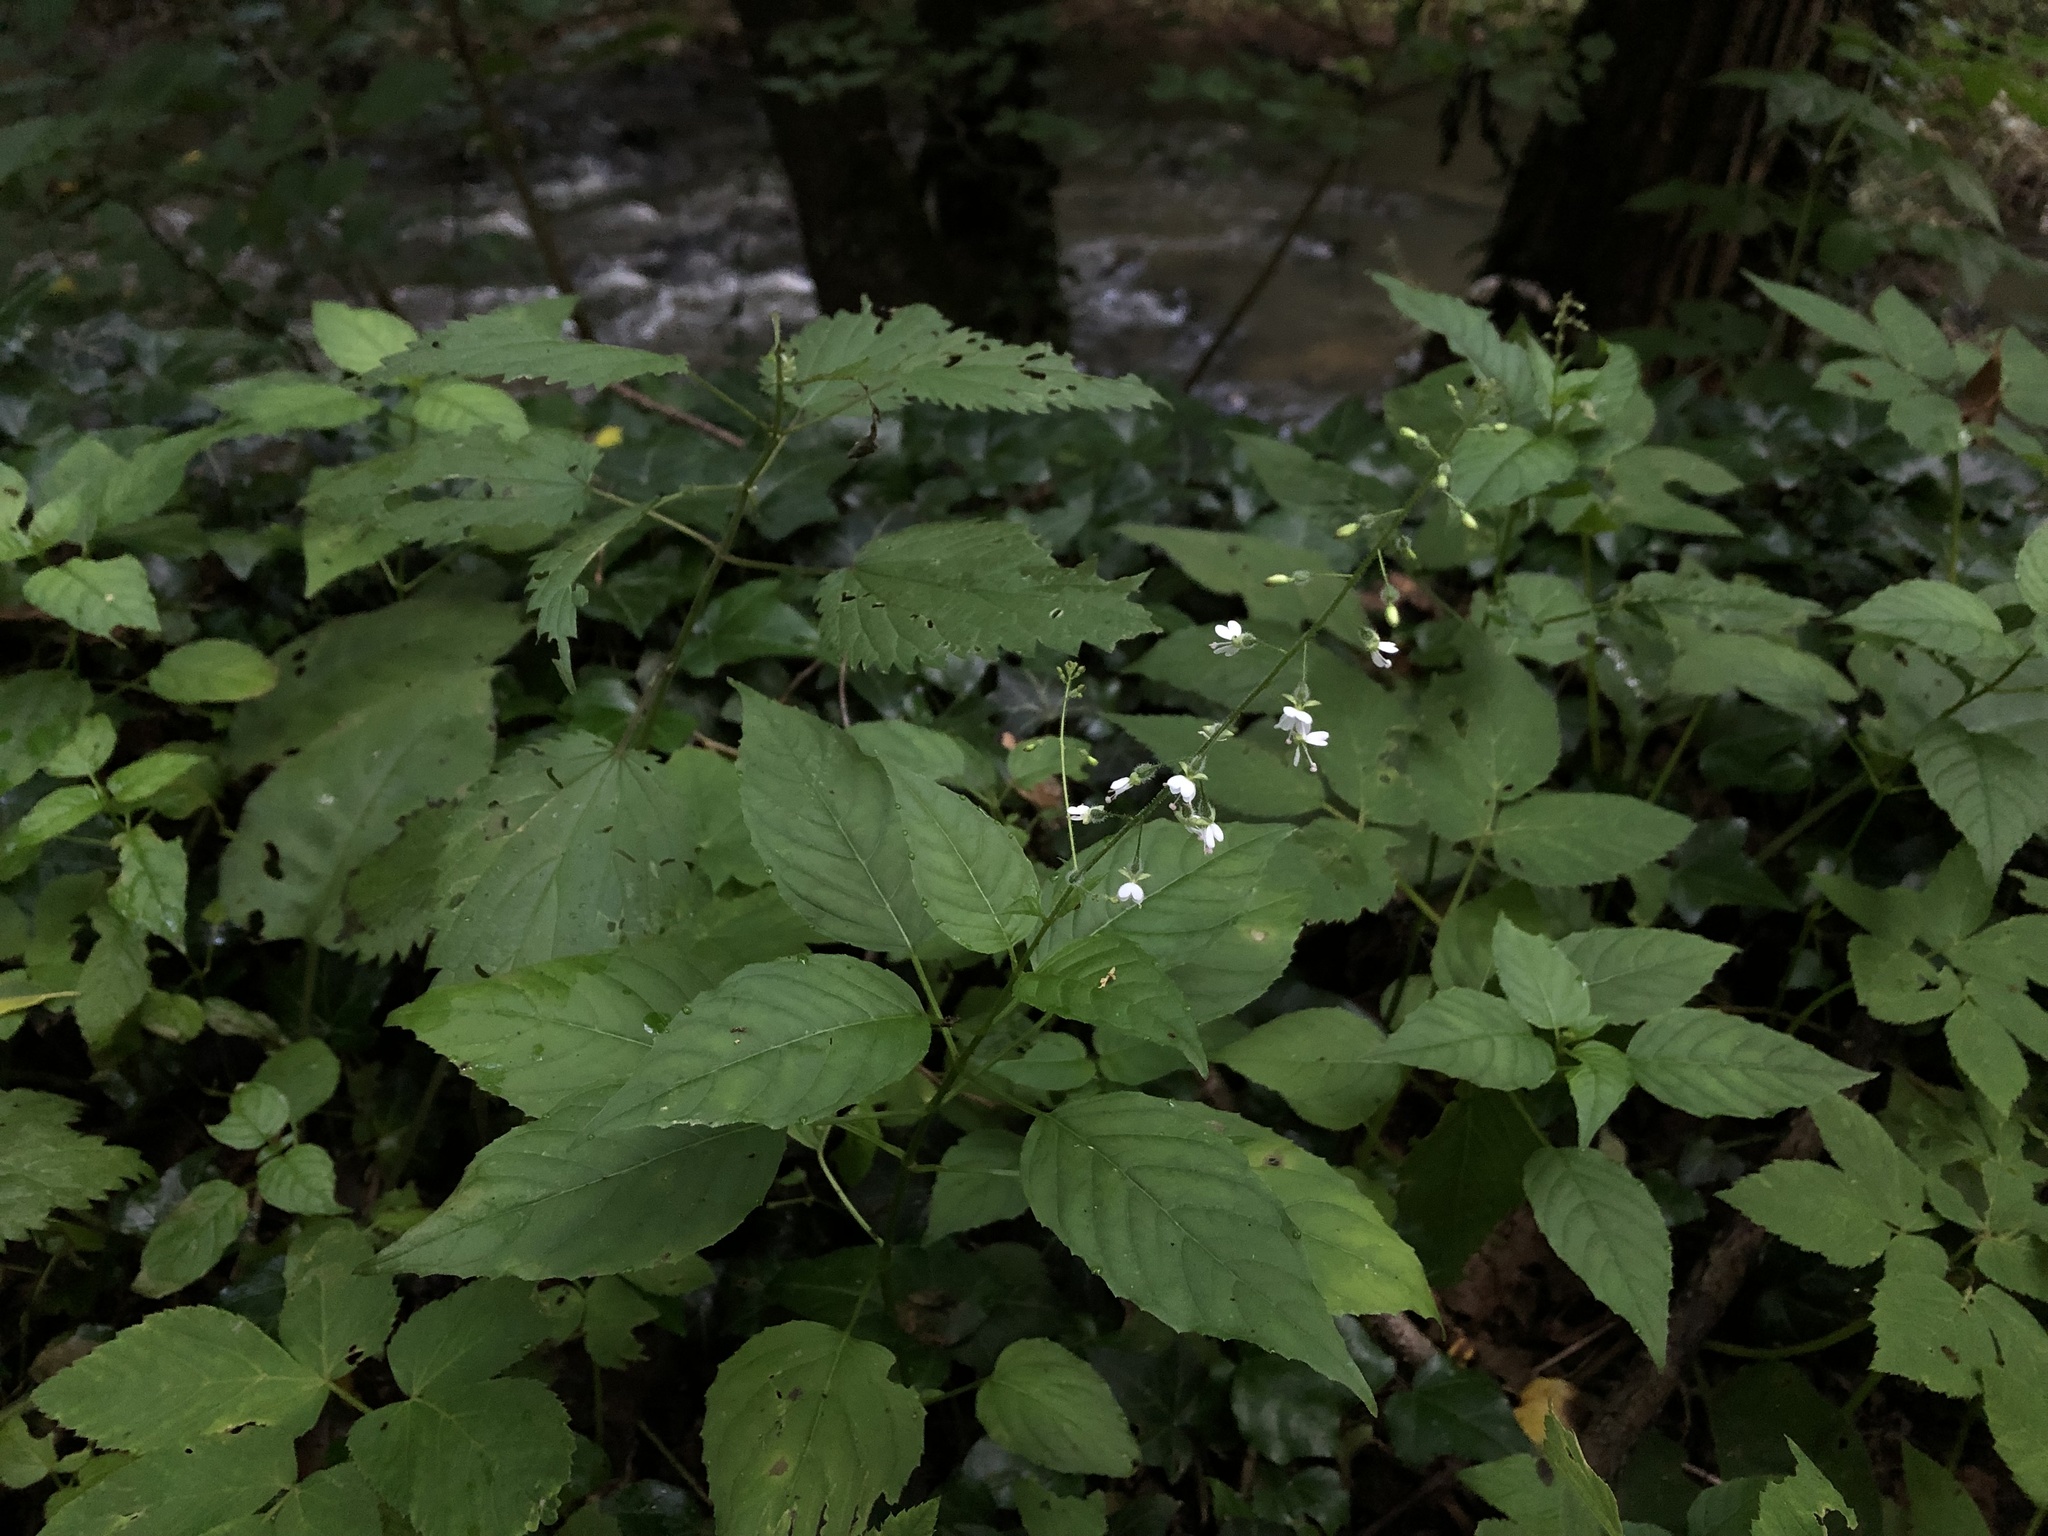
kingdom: Plantae
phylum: Tracheophyta
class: Magnoliopsida
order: Myrtales
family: Onagraceae
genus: Circaea
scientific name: Circaea lutetiana
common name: Enchanter's-nightshade
